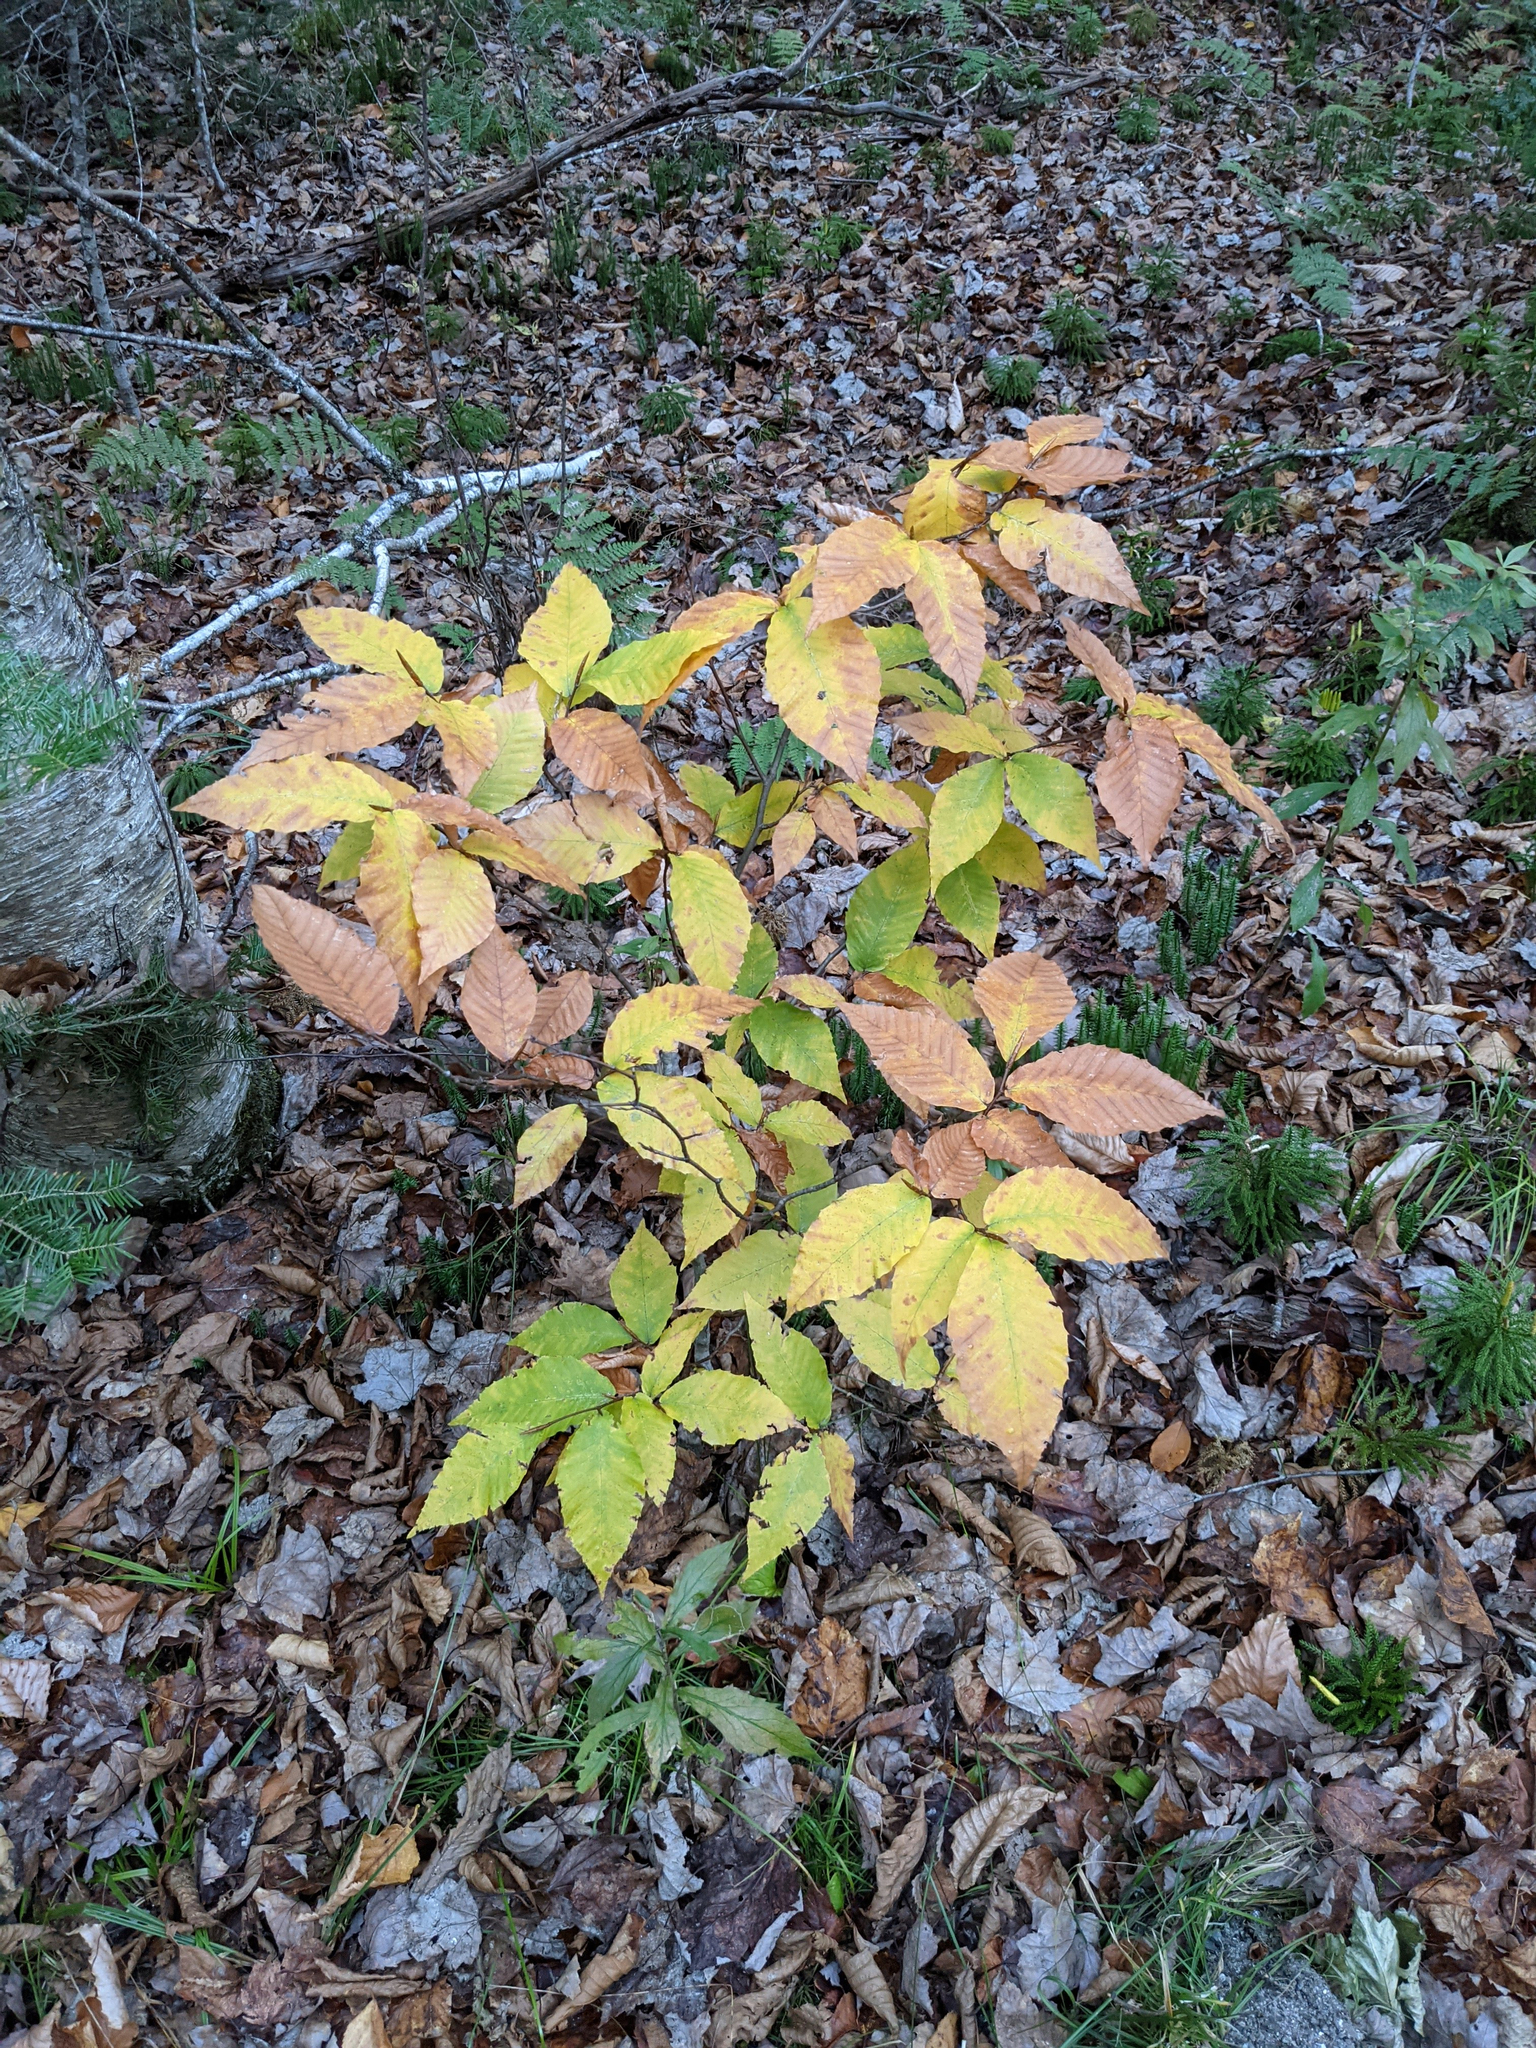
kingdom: Plantae
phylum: Tracheophyta
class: Magnoliopsida
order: Fagales
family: Fagaceae
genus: Fagus
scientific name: Fagus grandifolia
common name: American beech
